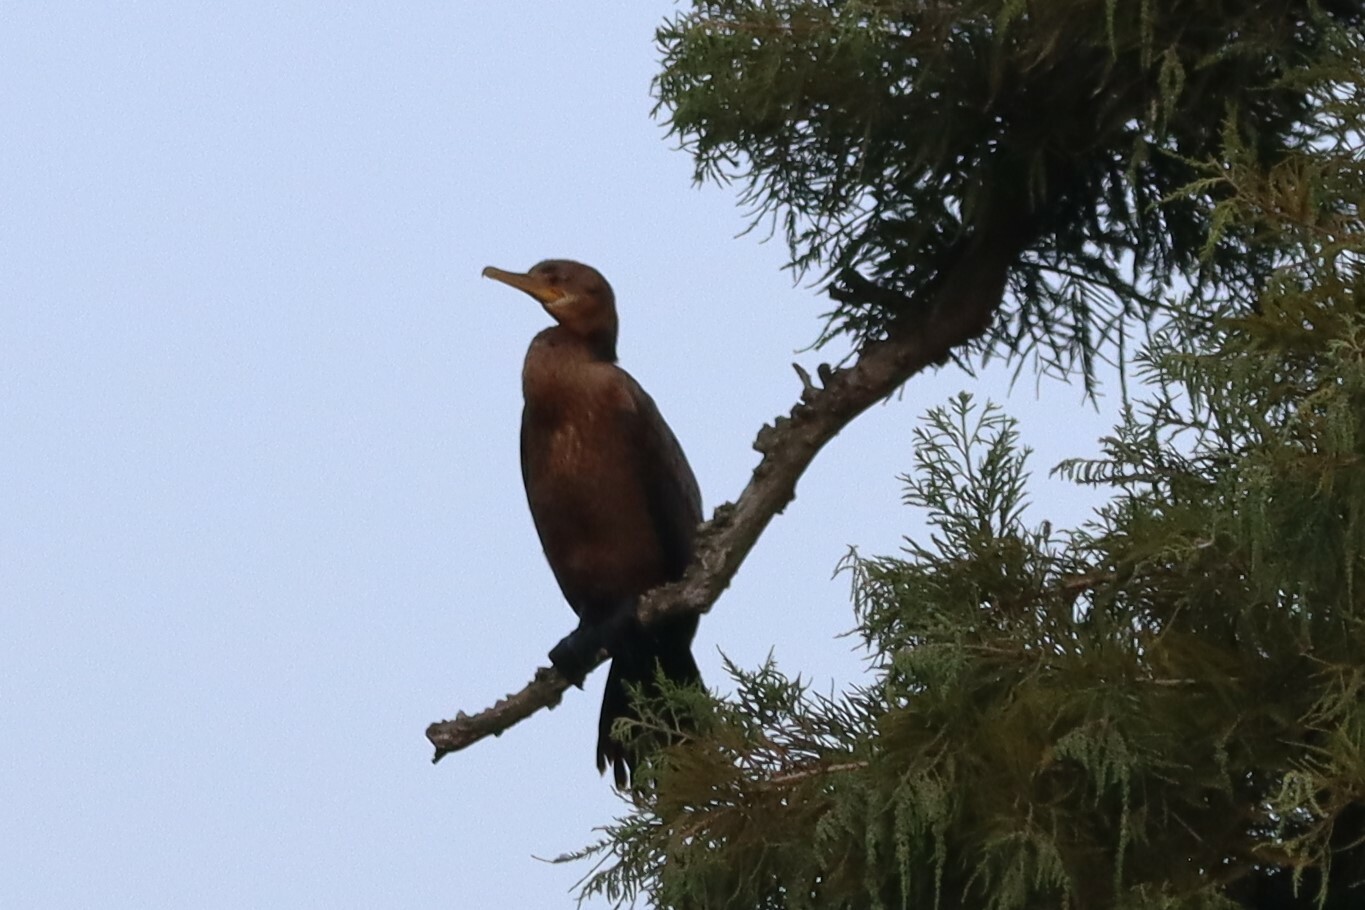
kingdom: Animalia
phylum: Chordata
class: Aves
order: Suliformes
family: Phalacrocoracidae
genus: Phalacrocorax
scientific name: Phalacrocorax brasilianus
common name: Neotropic cormorant
